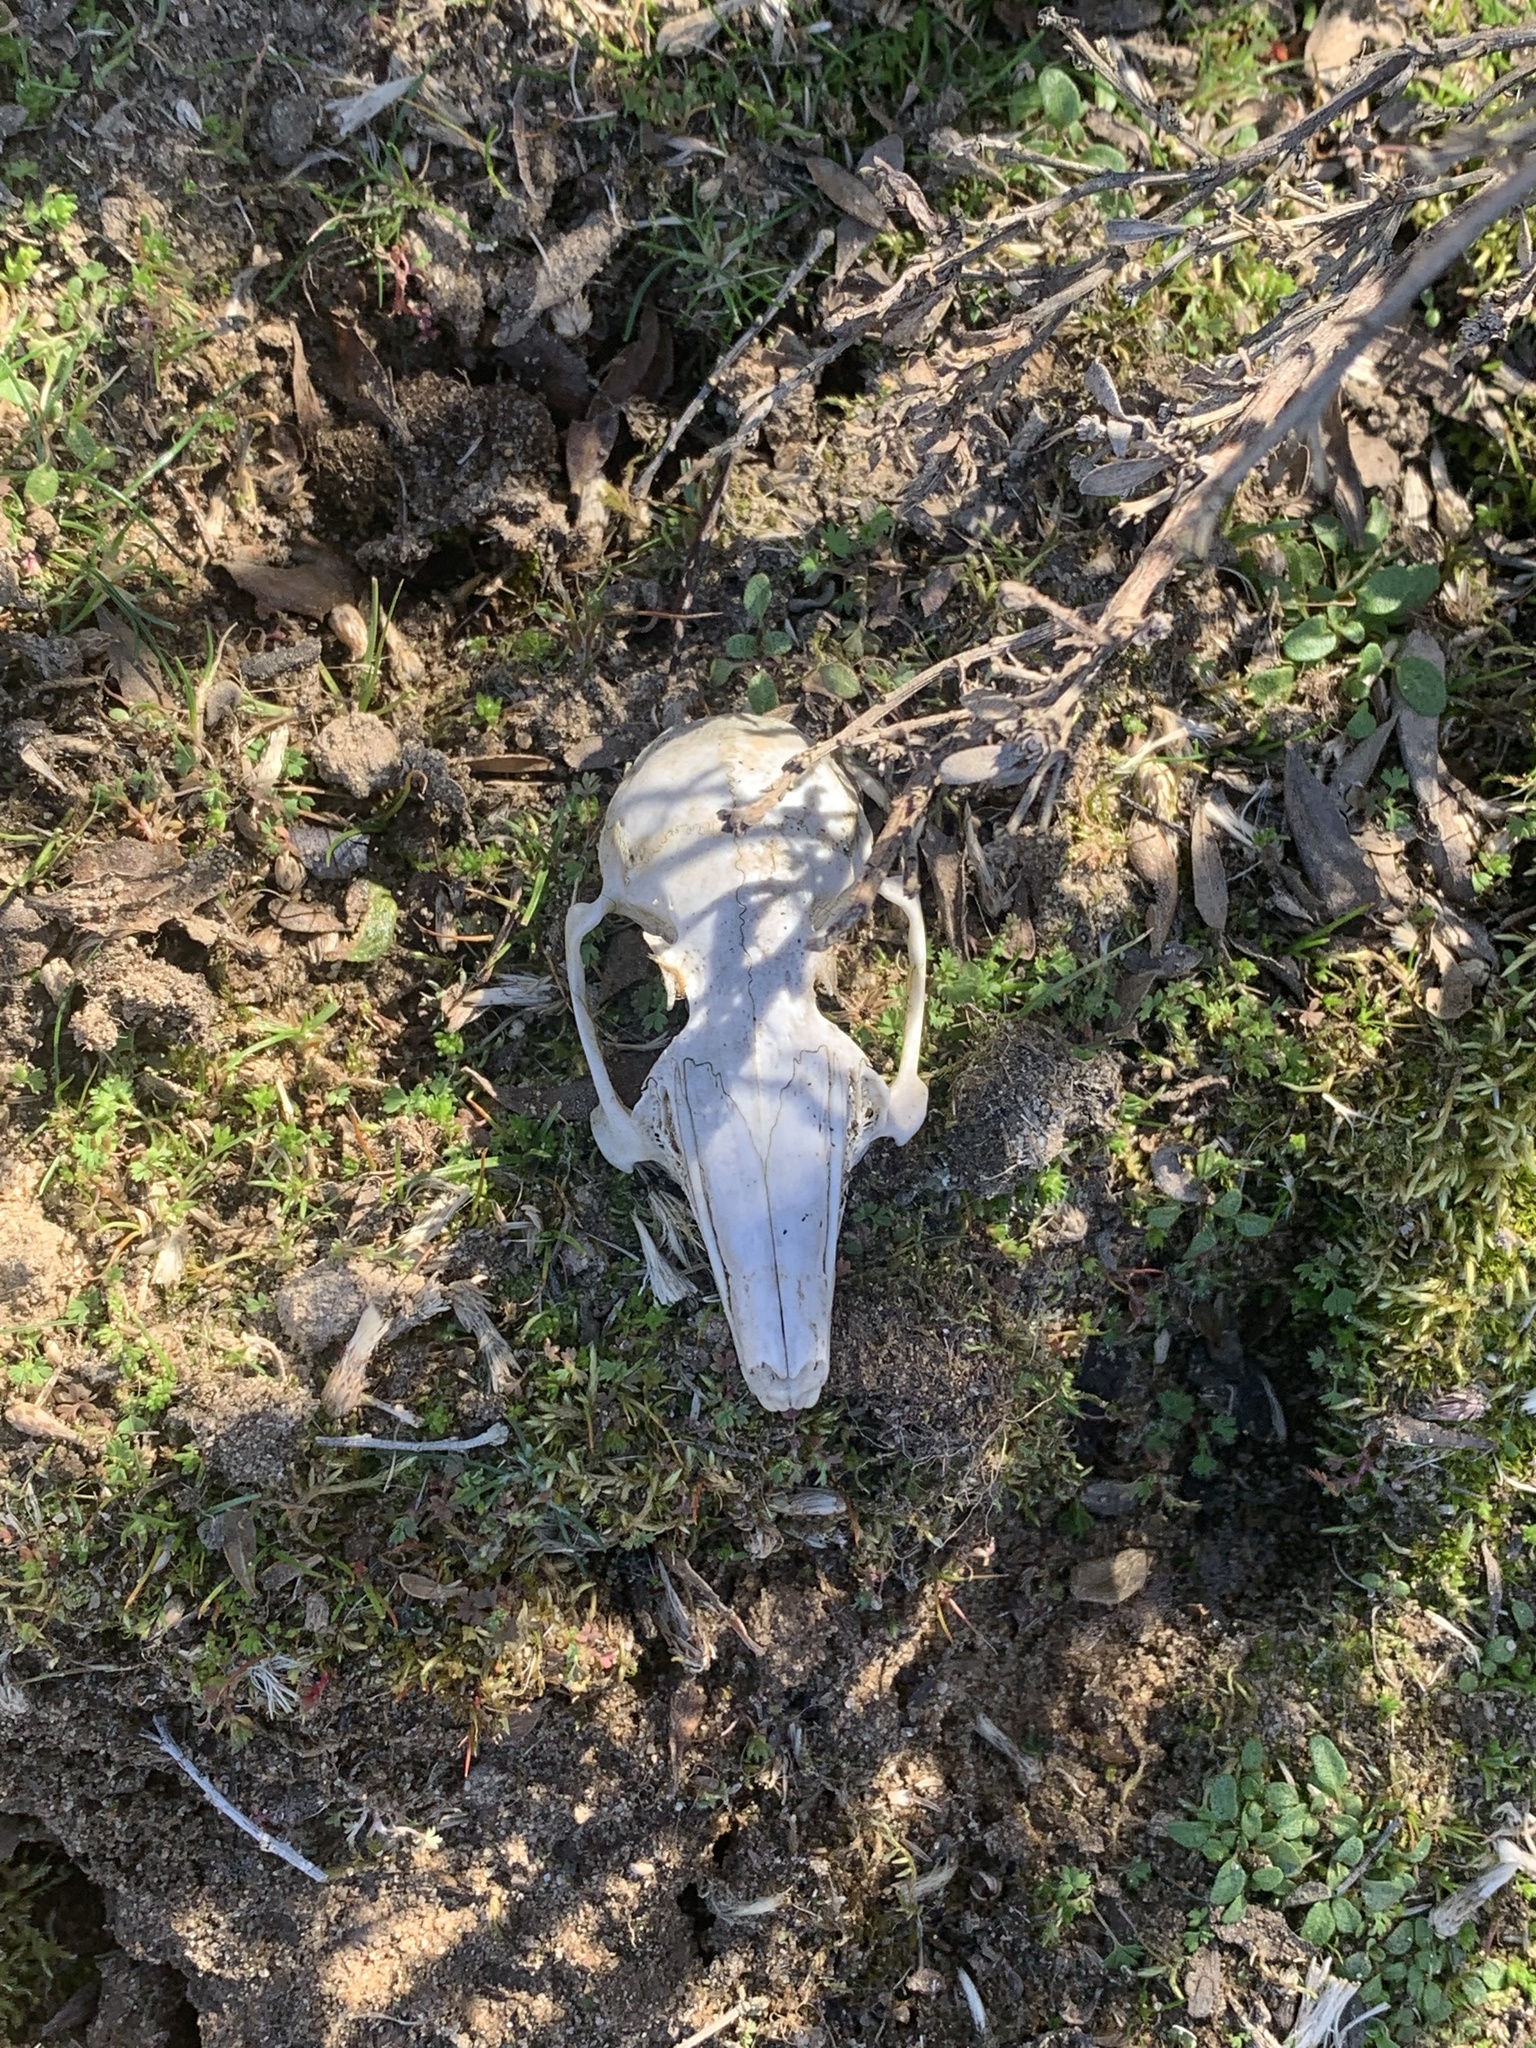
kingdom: Animalia
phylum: Chordata
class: Mammalia
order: Lagomorpha
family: Leporidae
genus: Sylvilagus
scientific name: Sylvilagus bachmani
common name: Brush rabbit
